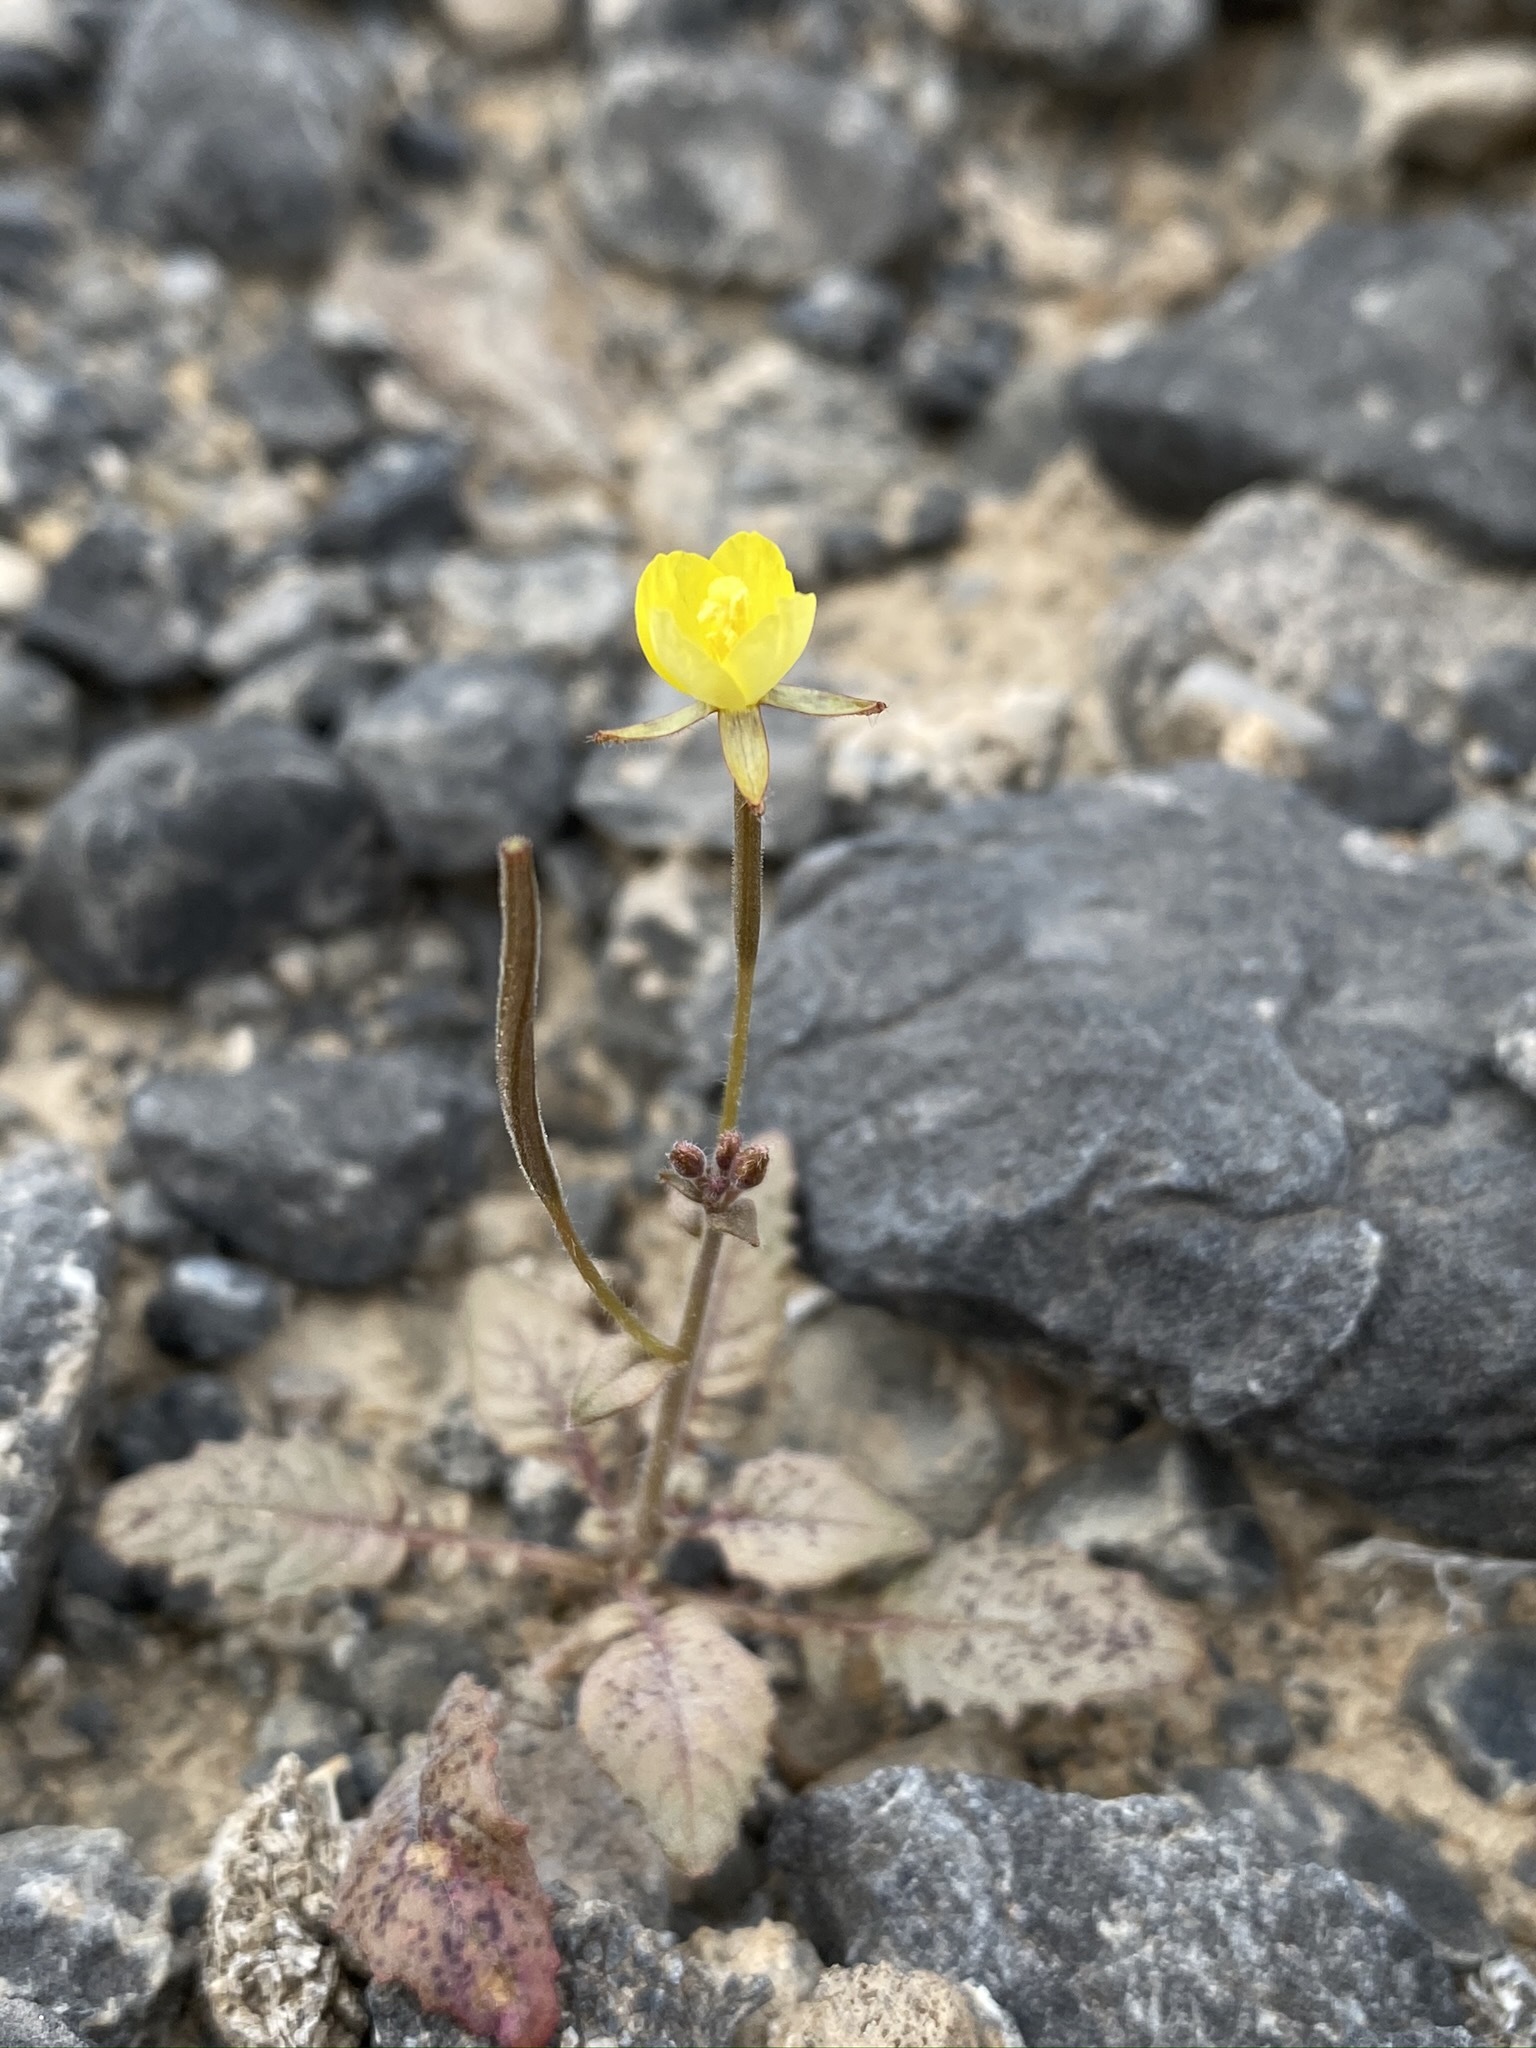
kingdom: Plantae
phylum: Tracheophyta
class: Magnoliopsida
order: Myrtales
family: Onagraceae
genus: Chylismia
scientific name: Chylismia walkeri
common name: Walker's suncup
